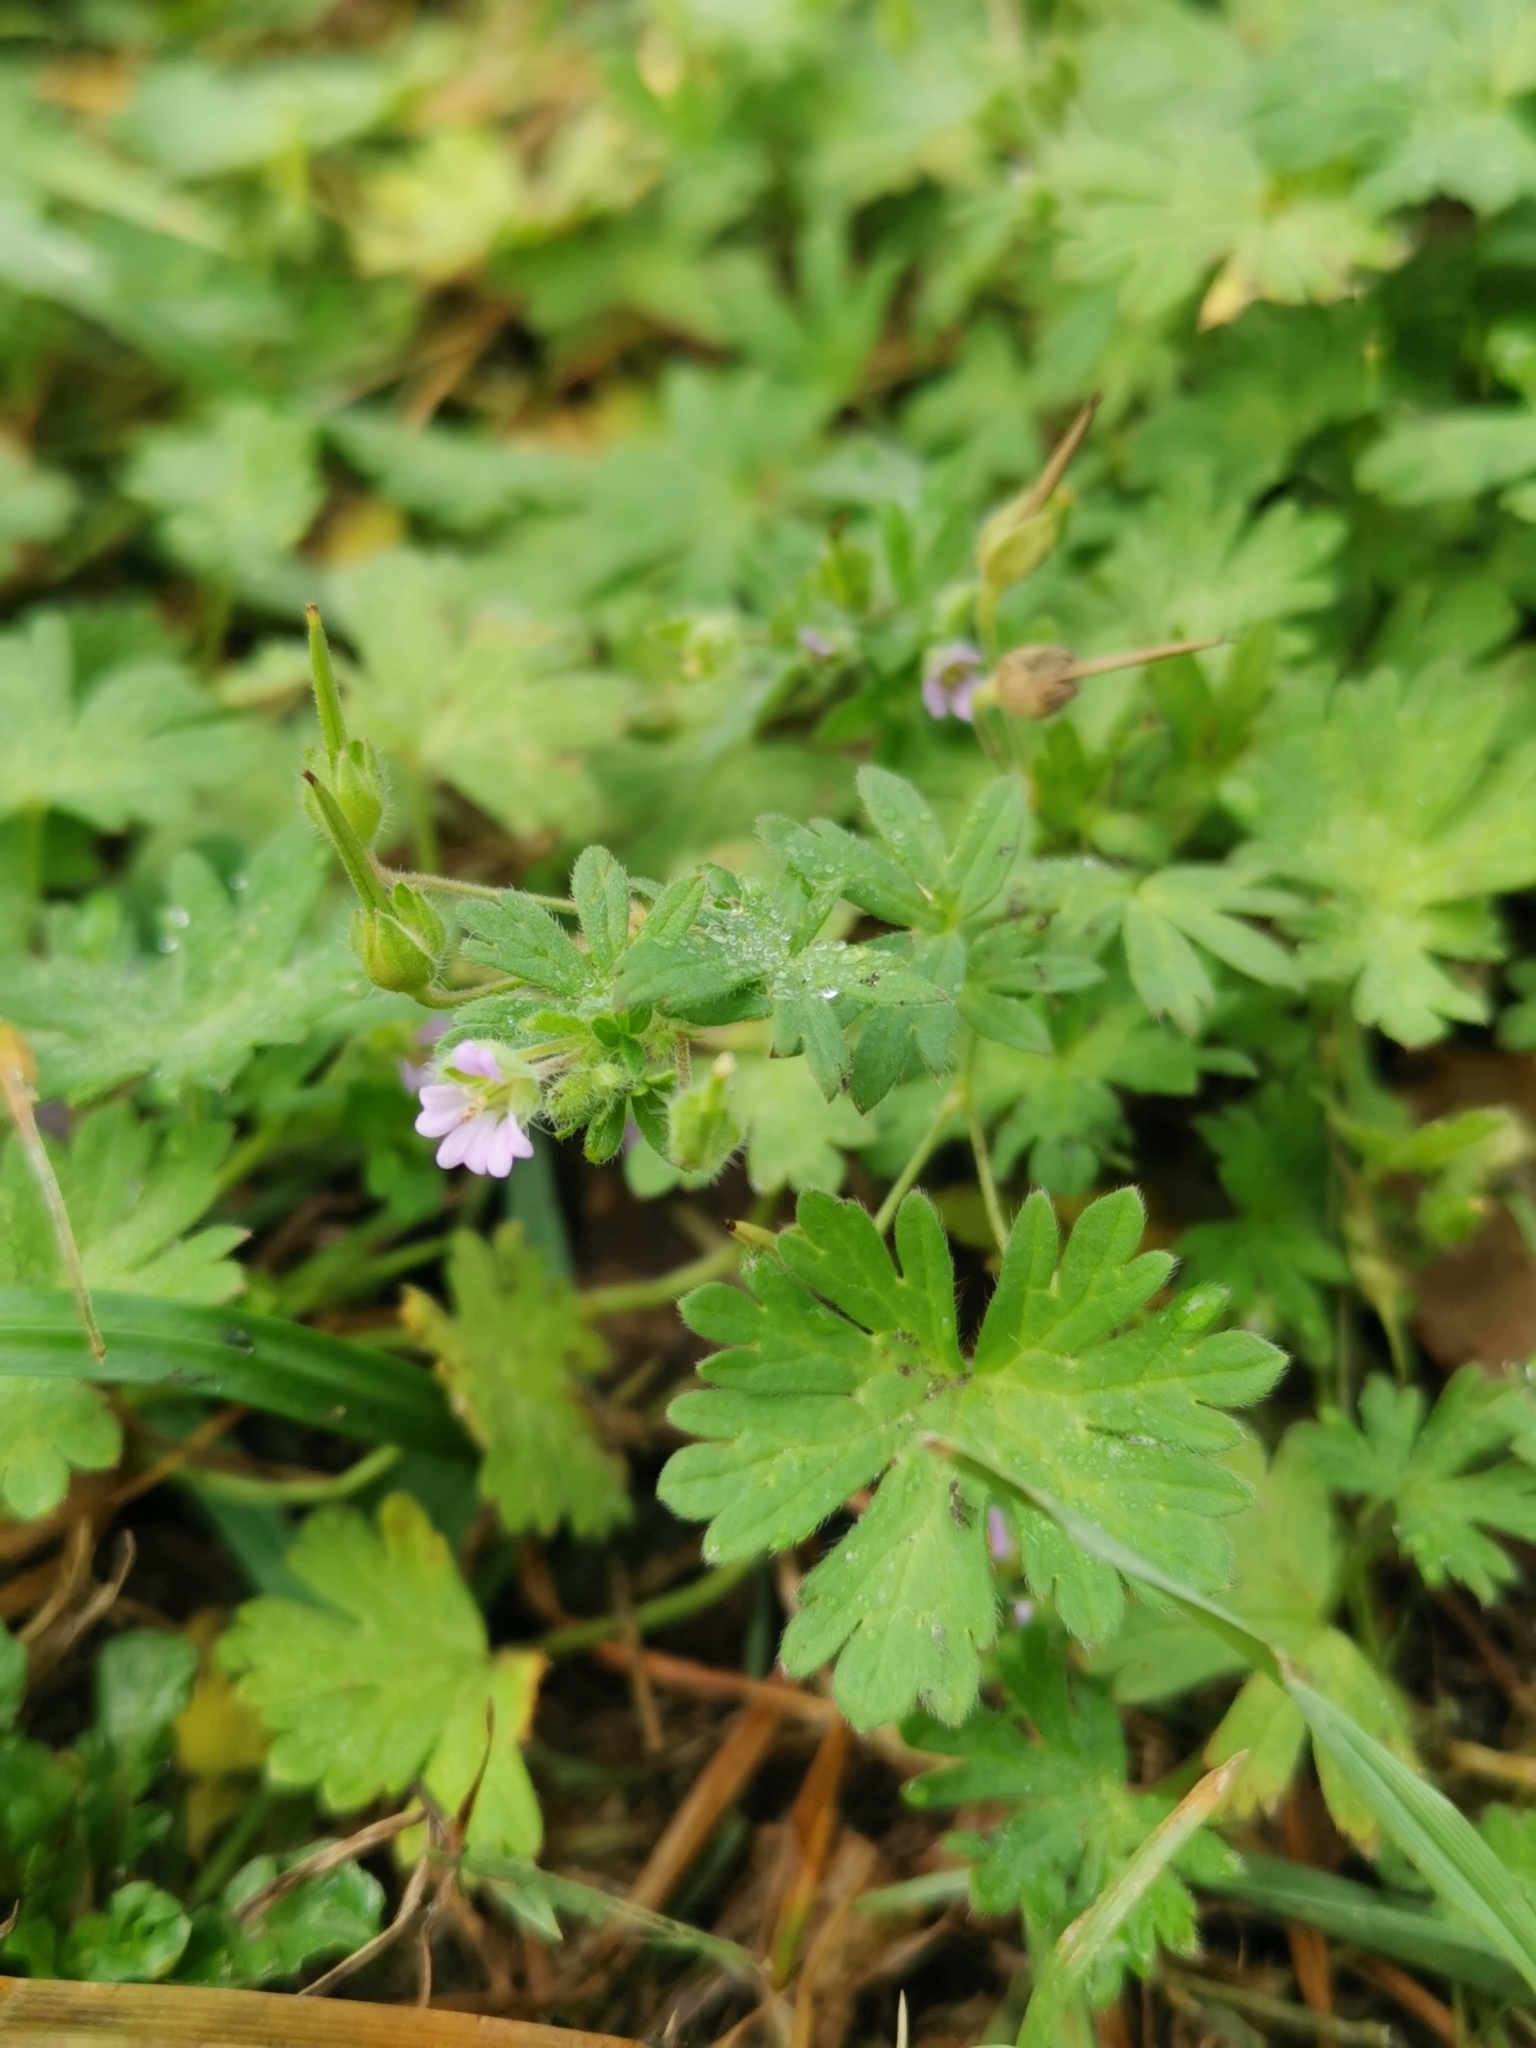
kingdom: Plantae
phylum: Tracheophyta
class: Magnoliopsida
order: Geraniales
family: Geraniaceae
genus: Geranium
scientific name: Geranium pusillum
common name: Small geranium
